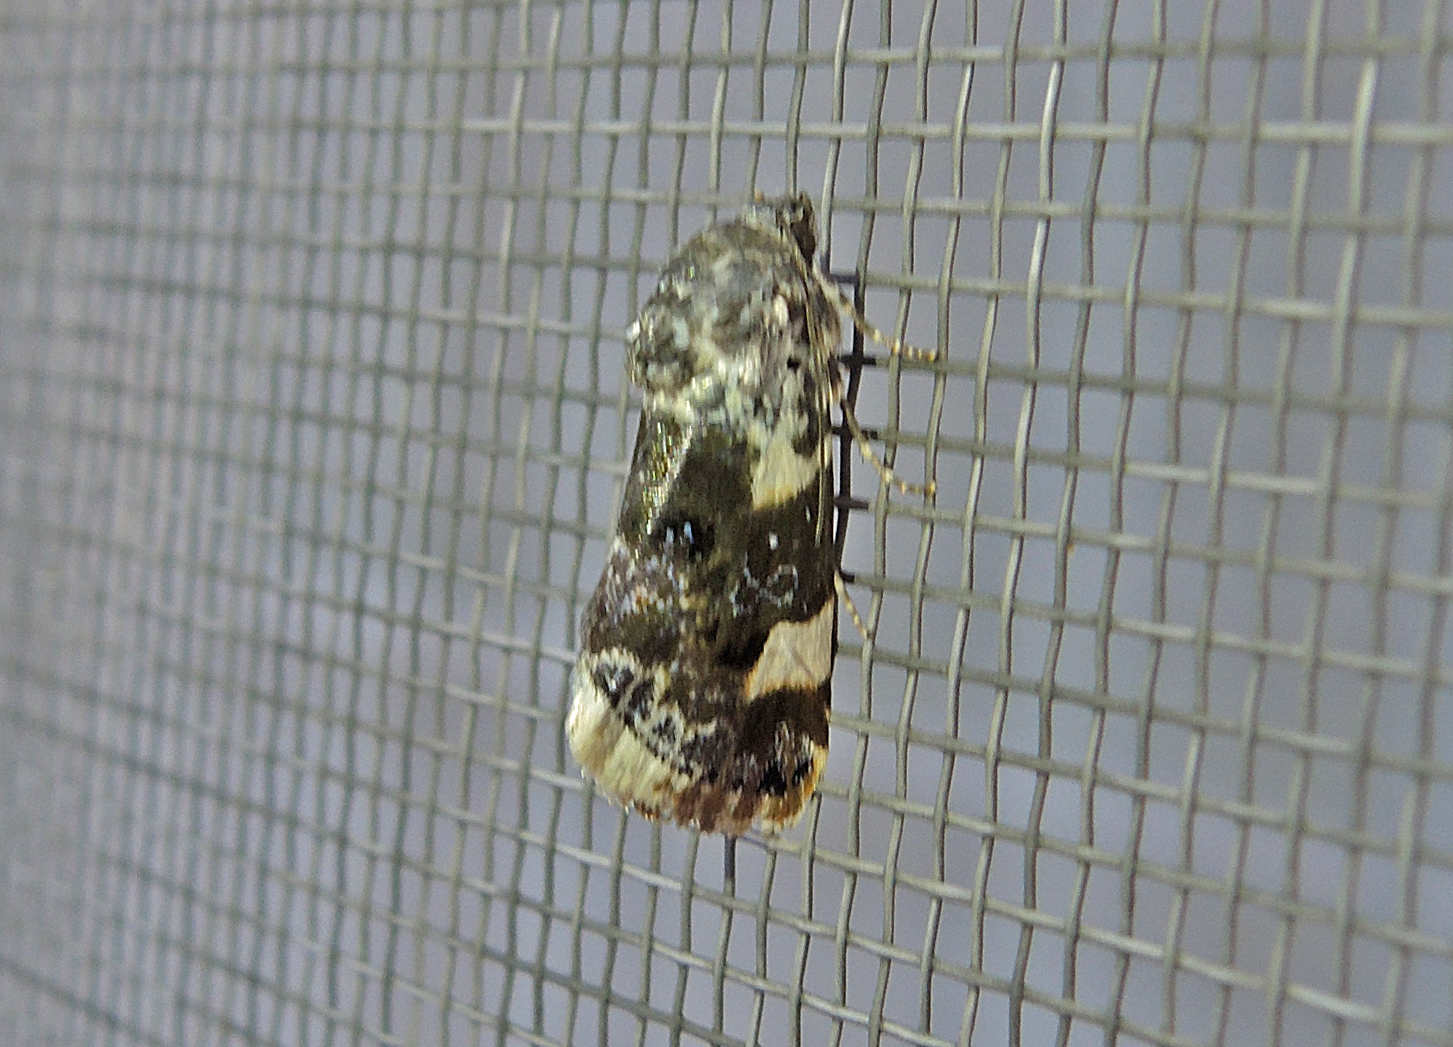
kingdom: Animalia
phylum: Arthropoda
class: Insecta
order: Lepidoptera
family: Noctuidae
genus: Acontia
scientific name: Acontia lucida
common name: Pale shoulder
